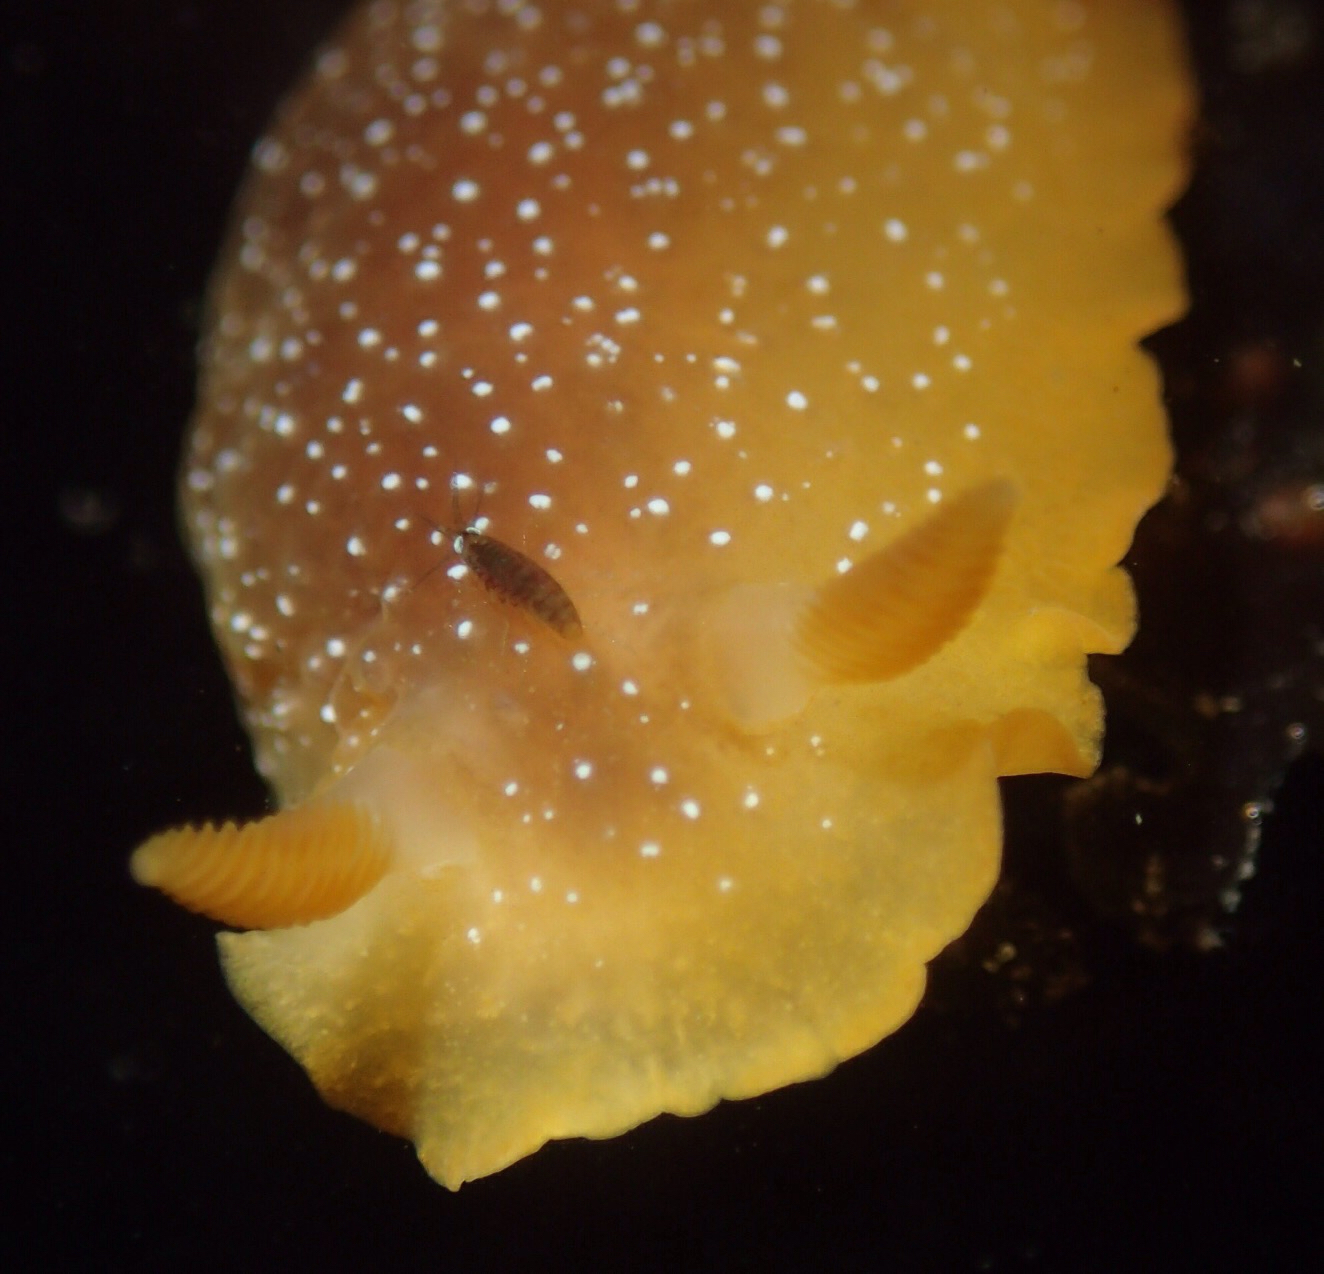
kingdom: Animalia
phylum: Mollusca
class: Gastropoda
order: Nudibranchia
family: Dendrodorididae
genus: Doriopsilla
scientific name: Doriopsilla fulva
